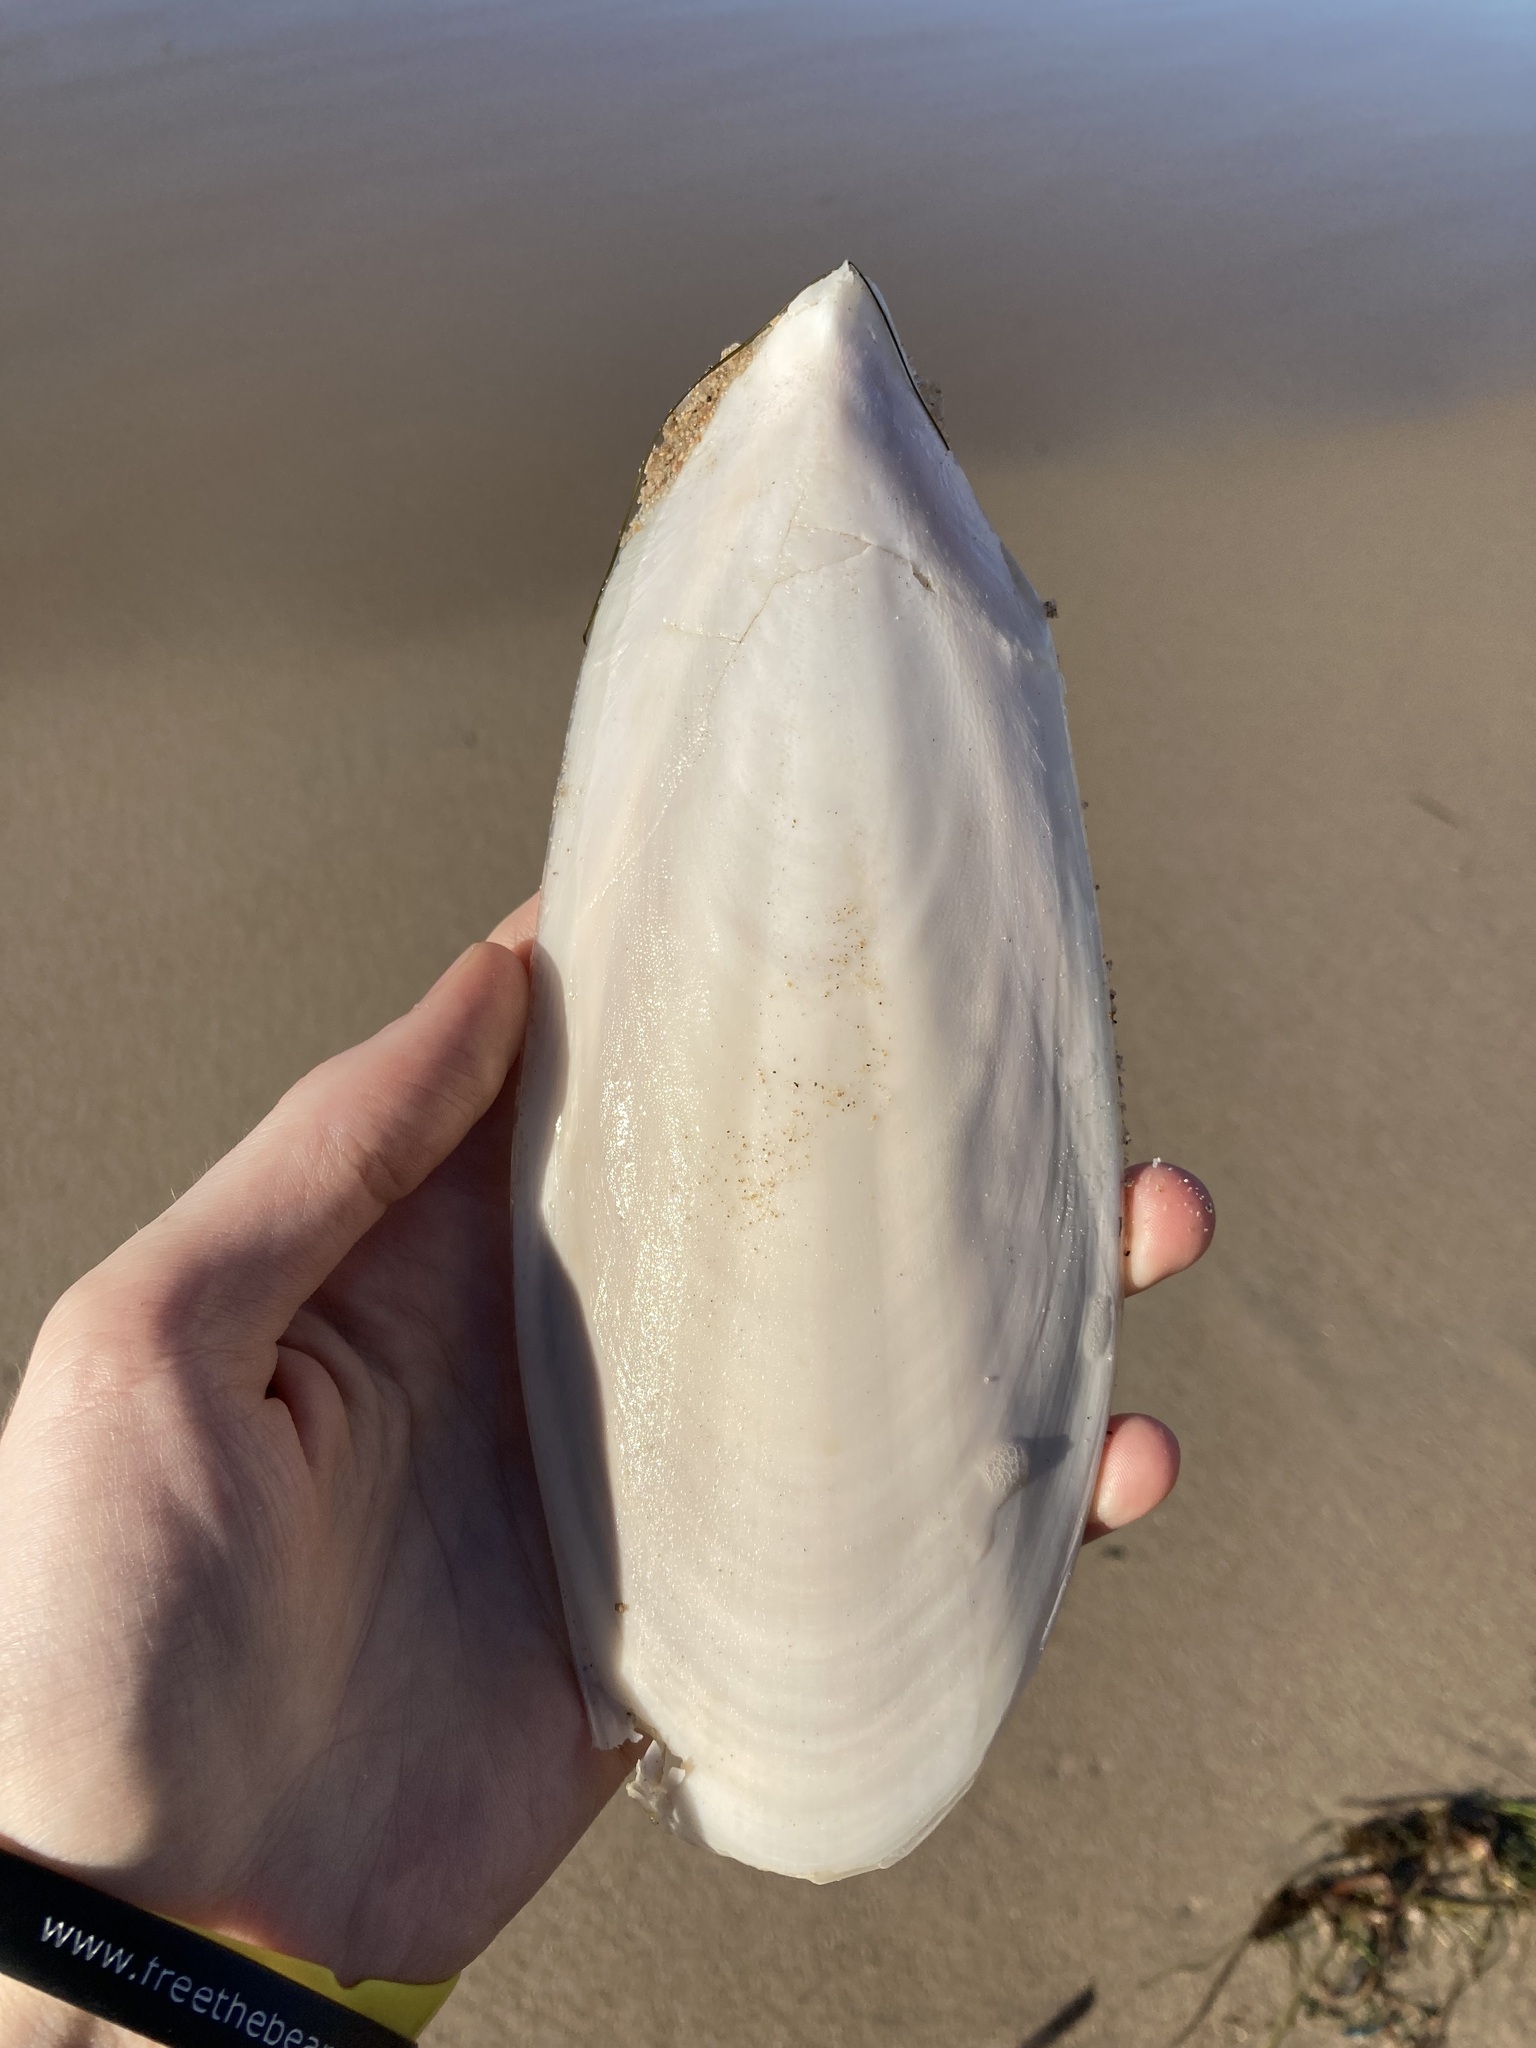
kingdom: Animalia
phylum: Mollusca
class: Cephalopoda
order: Sepiida
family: Sepiidae
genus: Ascarosepion
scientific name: Ascarosepion apama
